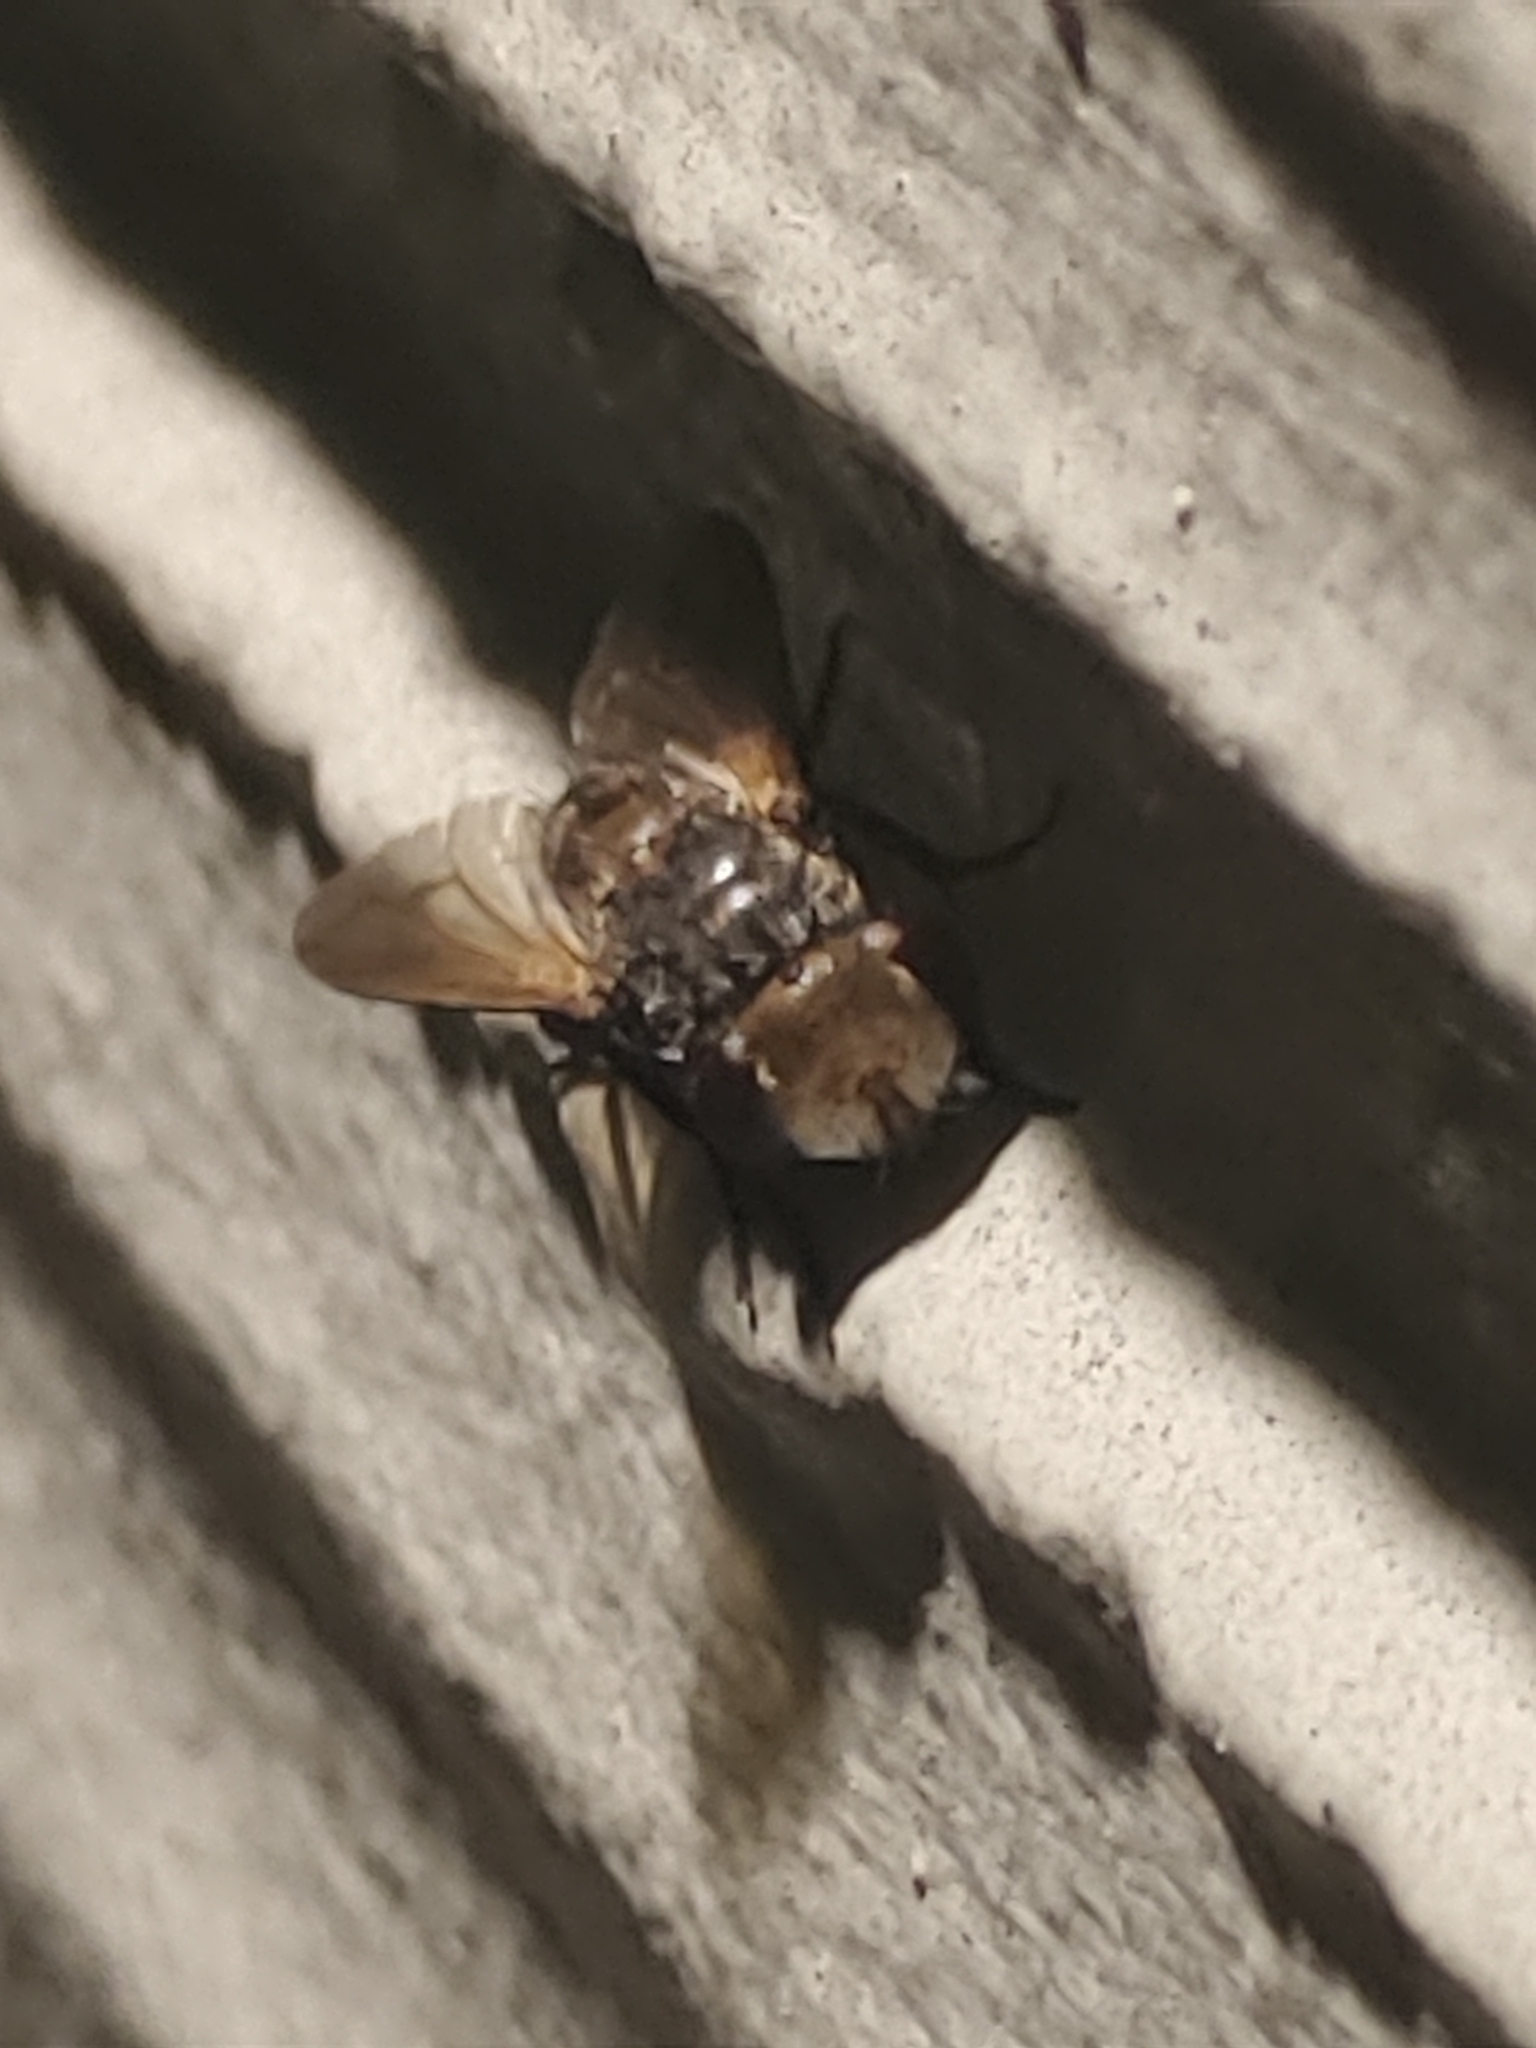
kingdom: Animalia
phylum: Arthropoda
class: Insecta
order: Diptera
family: Tachinidae
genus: Gonia
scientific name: Gonia crassicornis
